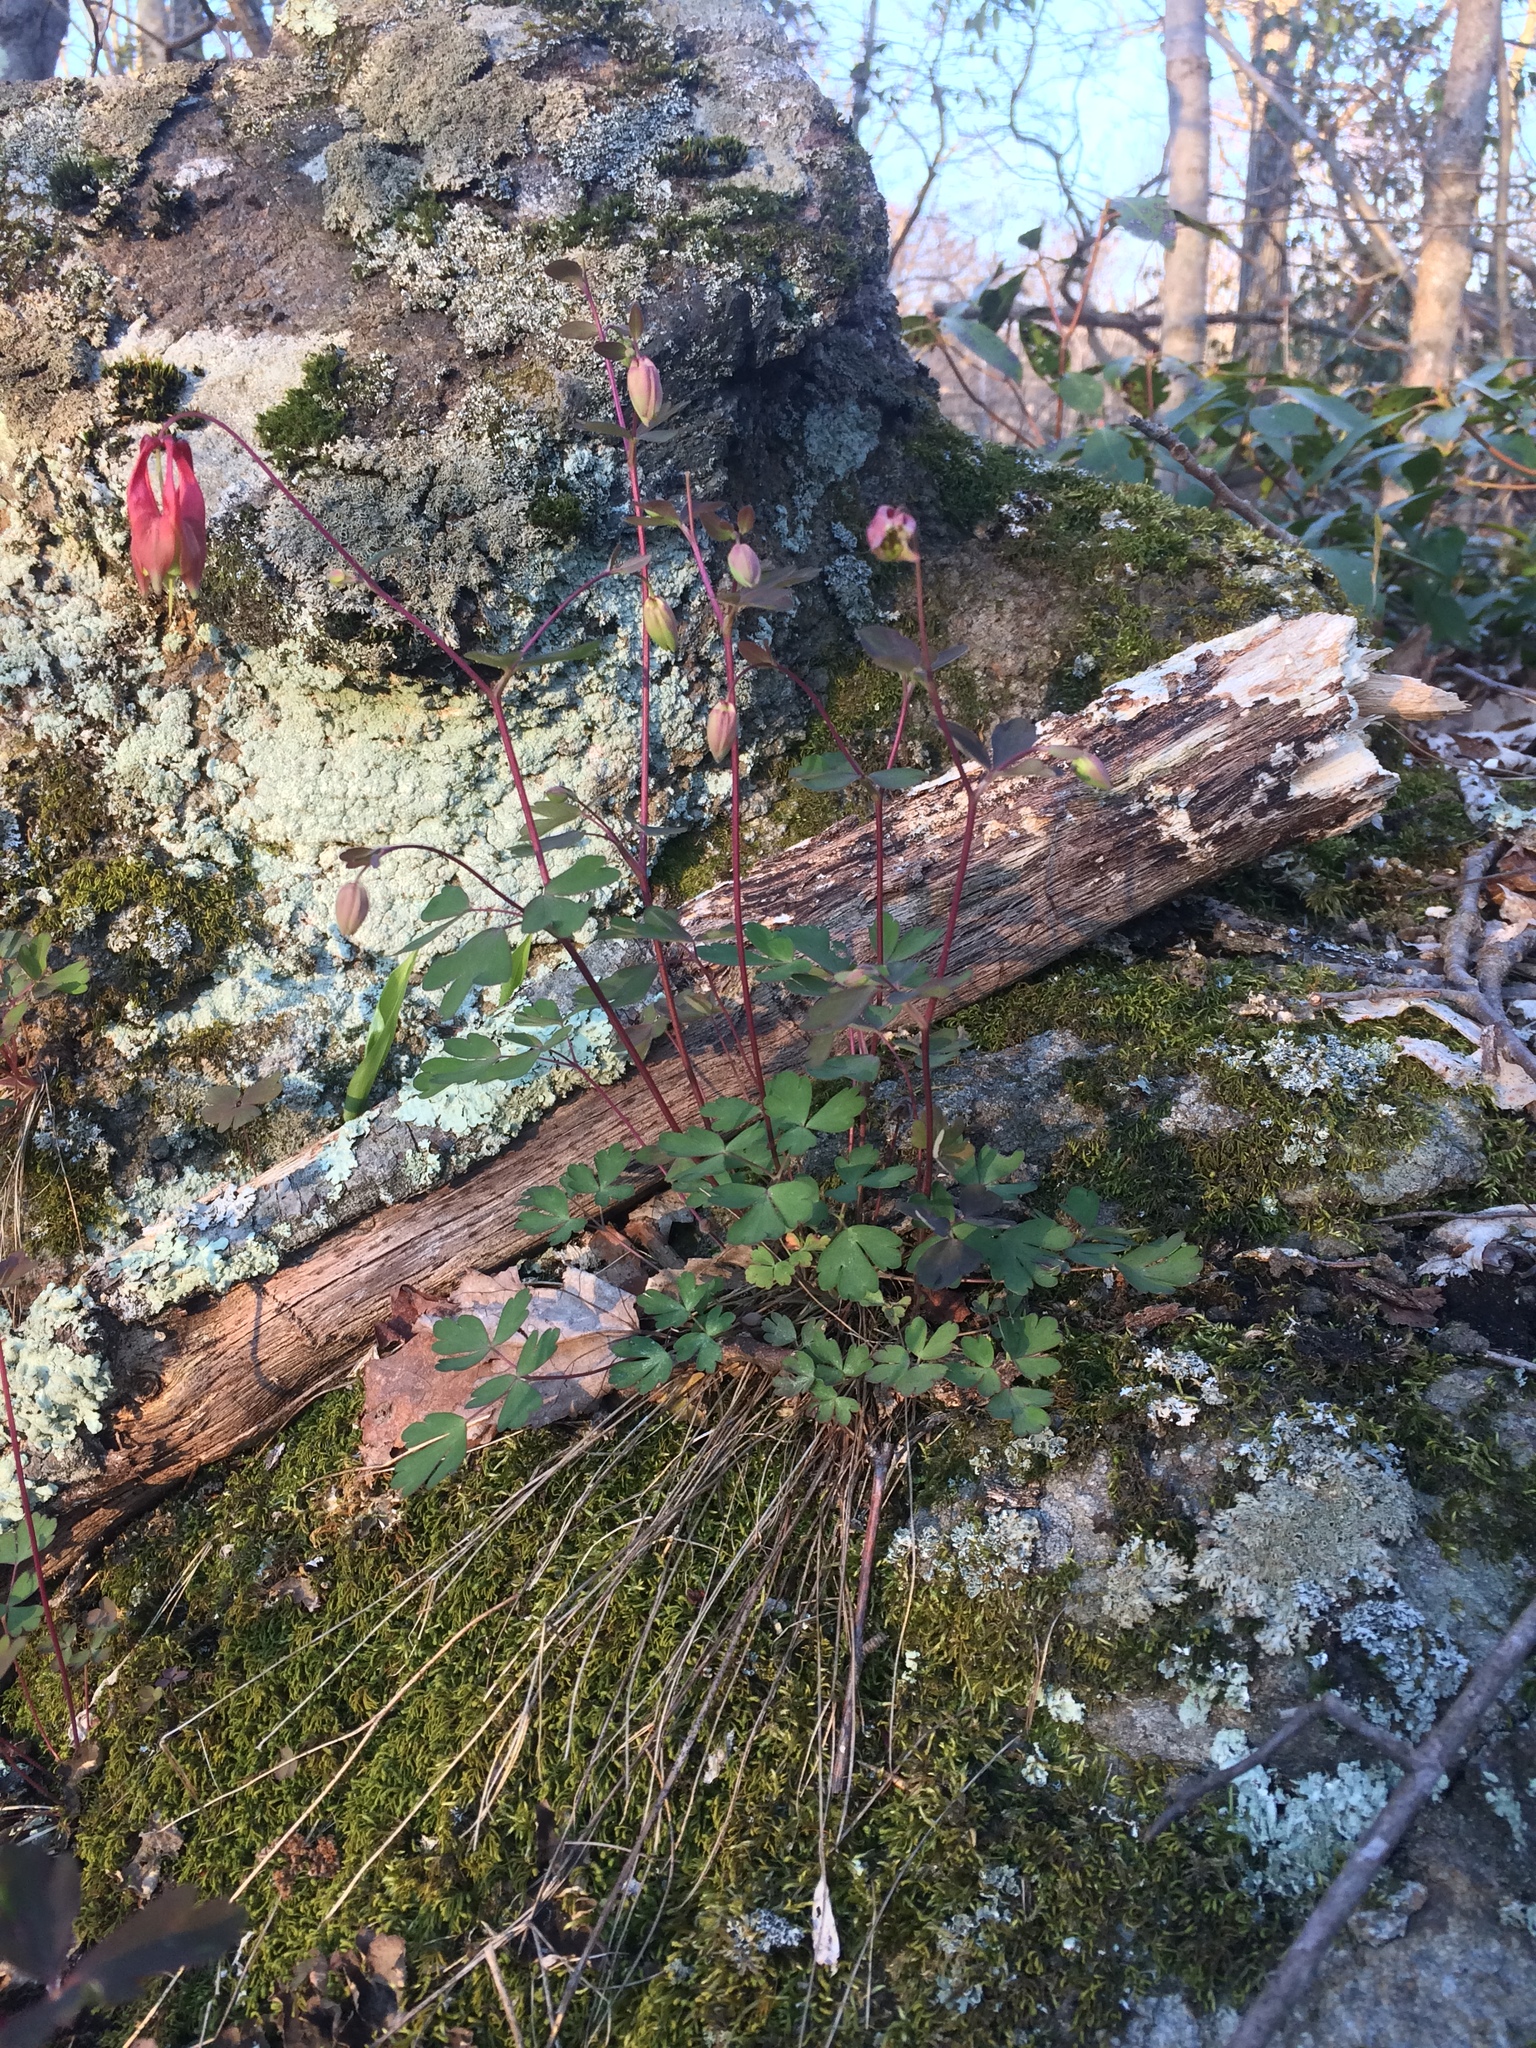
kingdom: Plantae
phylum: Tracheophyta
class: Magnoliopsida
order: Ranunculales
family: Ranunculaceae
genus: Aquilegia
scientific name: Aquilegia canadensis
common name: American columbine
